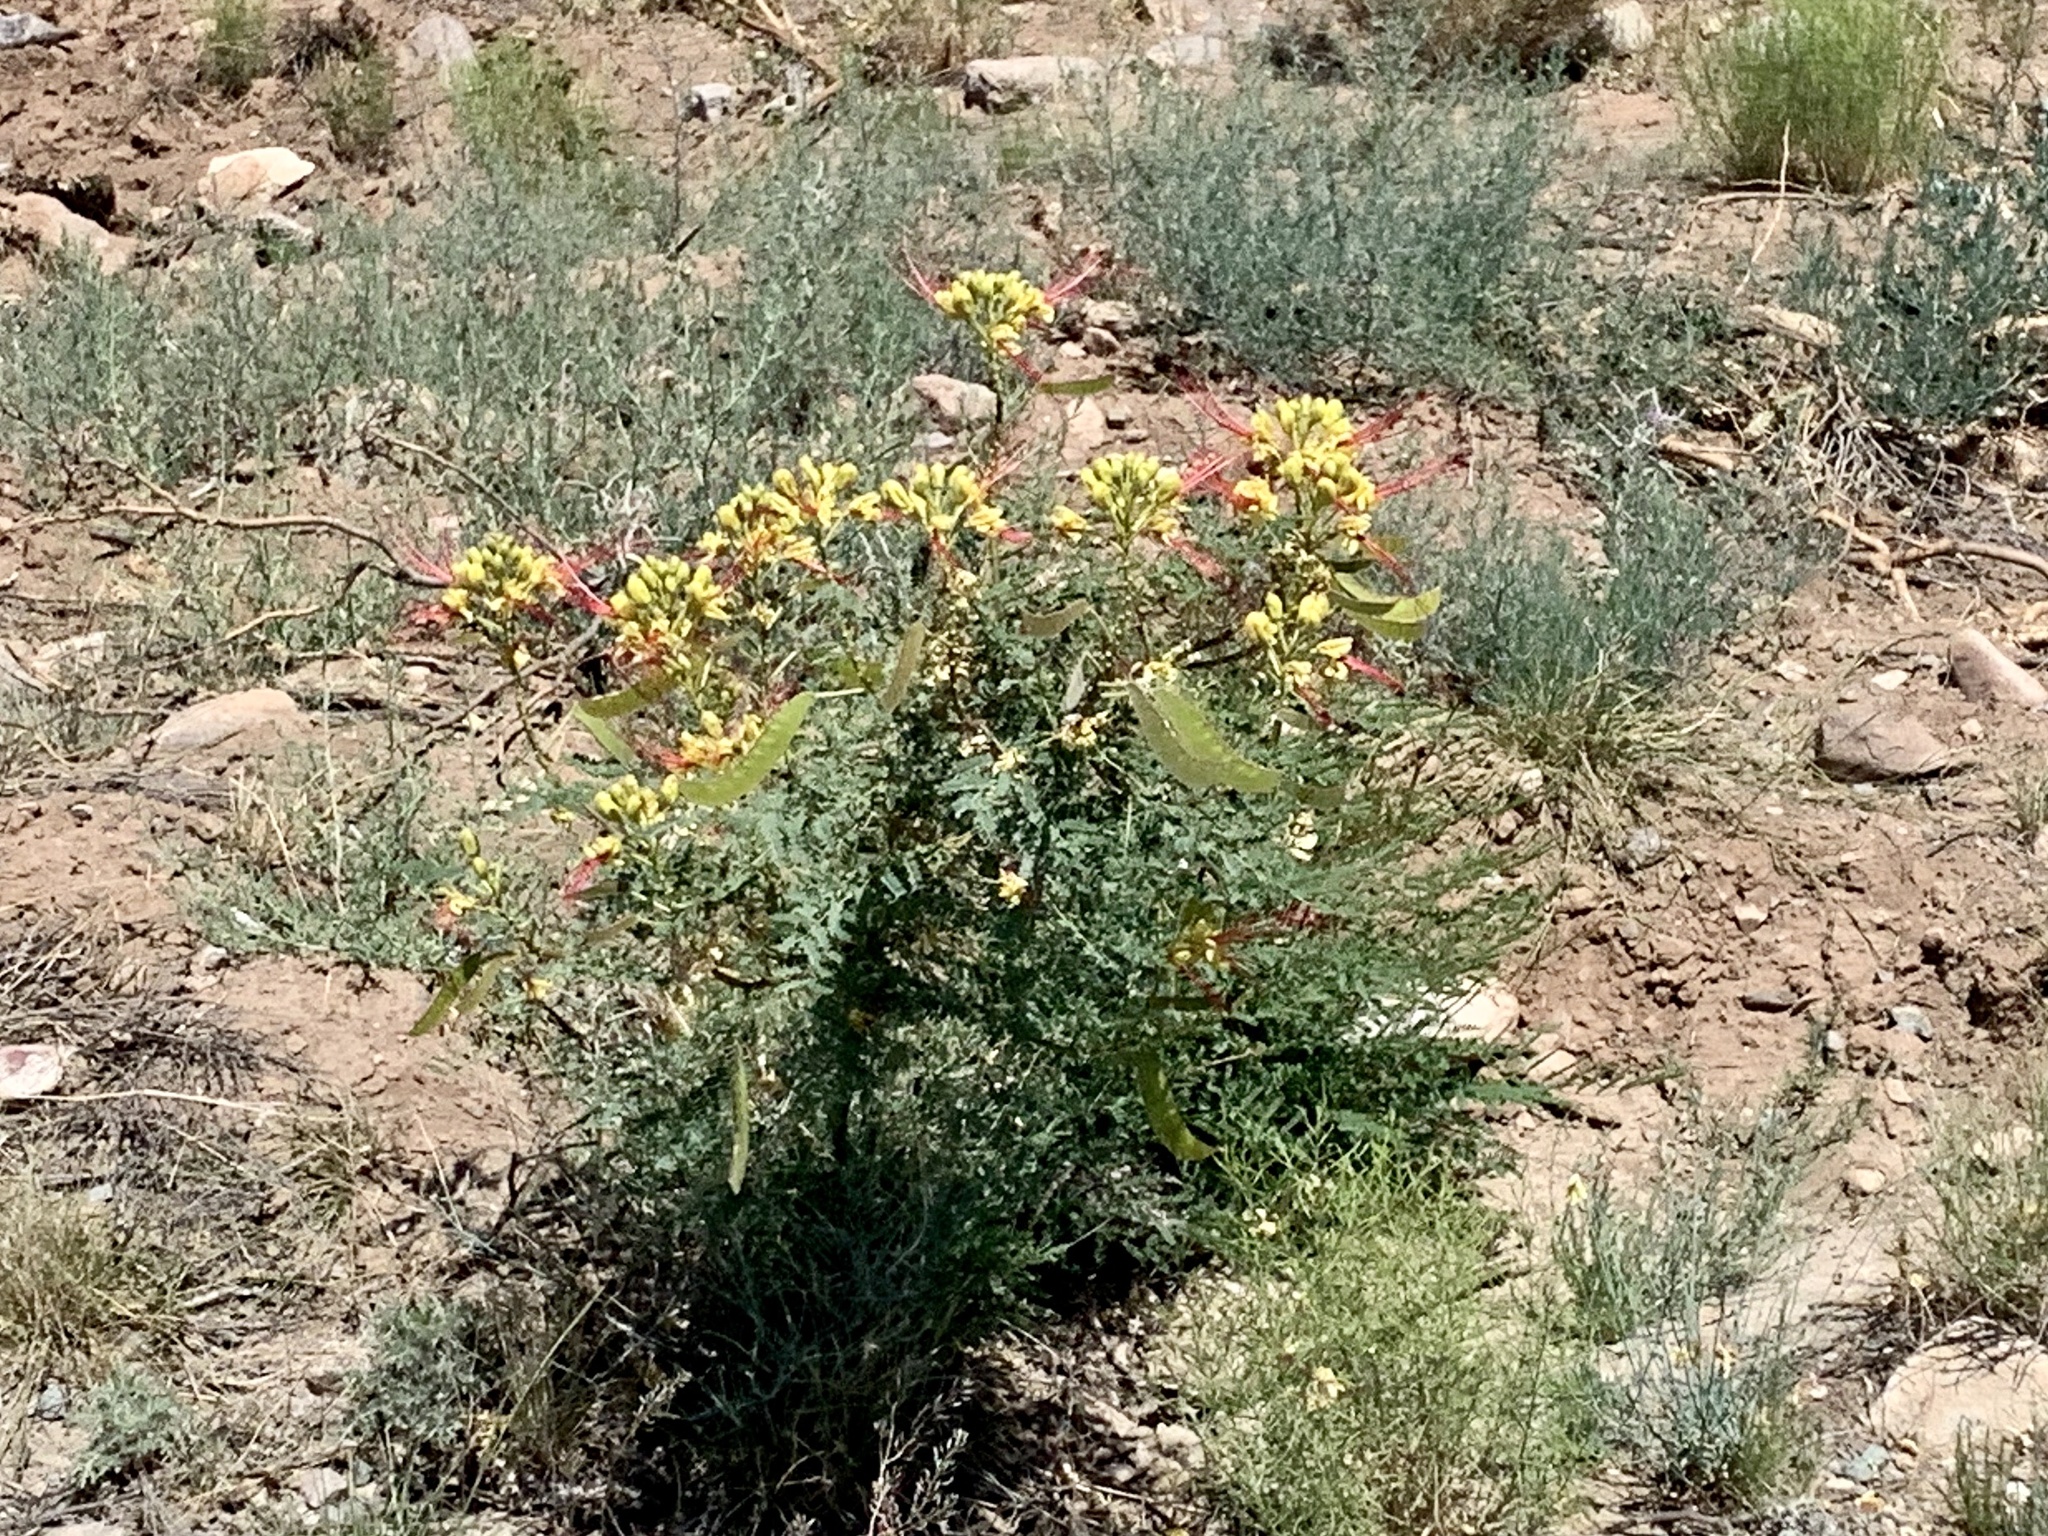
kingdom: Plantae
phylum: Tracheophyta
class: Magnoliopsida
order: Fabales
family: Fabaceae
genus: Erythrostemon
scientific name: Erythrostemon gilliesii
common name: Bird-of-paradise shrub
